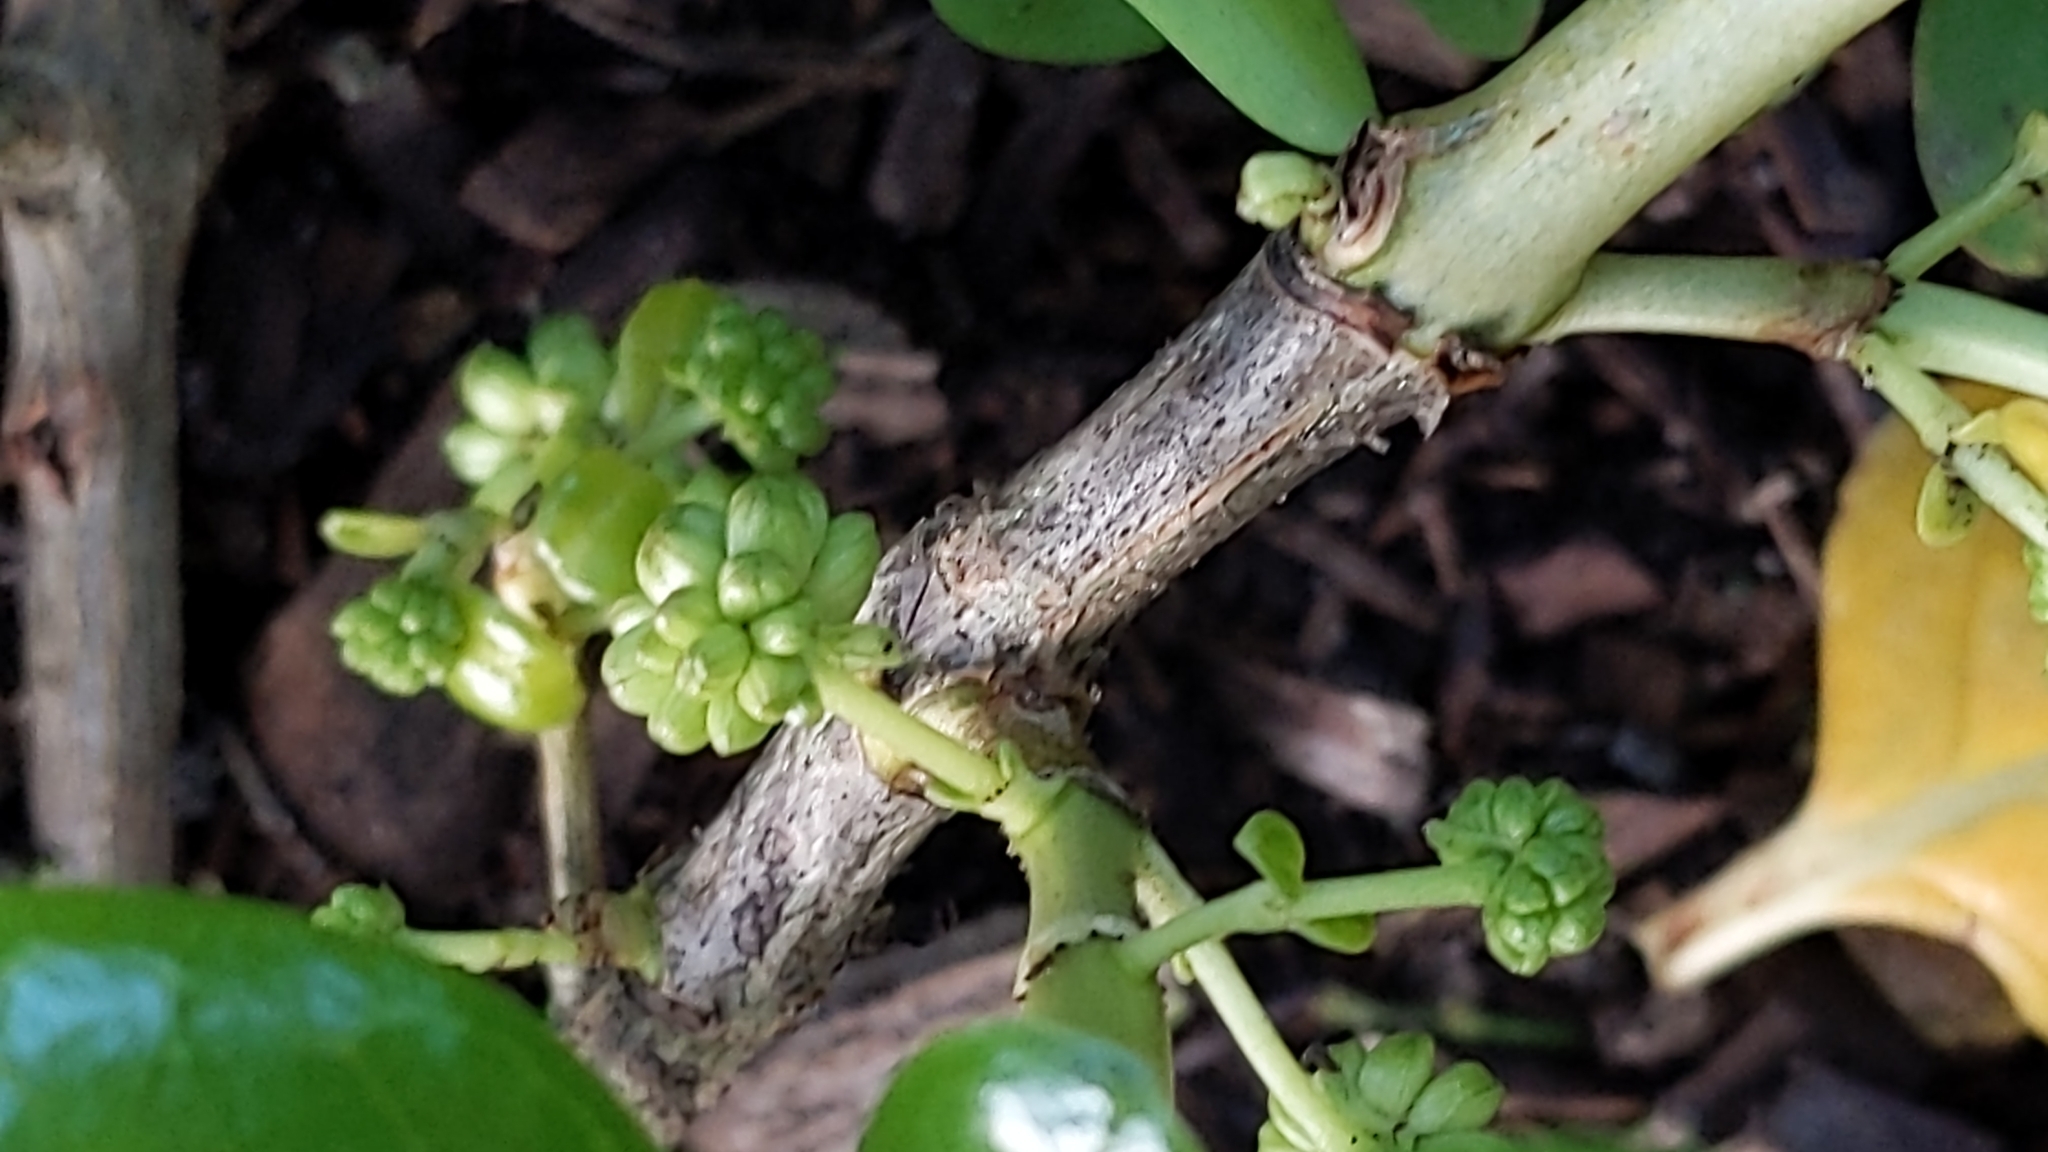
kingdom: Plantae
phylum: Tracheophyta
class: Magnoliopsida
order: Gentianales
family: Rubiaceae
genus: Coprosma
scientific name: Coprosma repens
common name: Tree bedstraw
